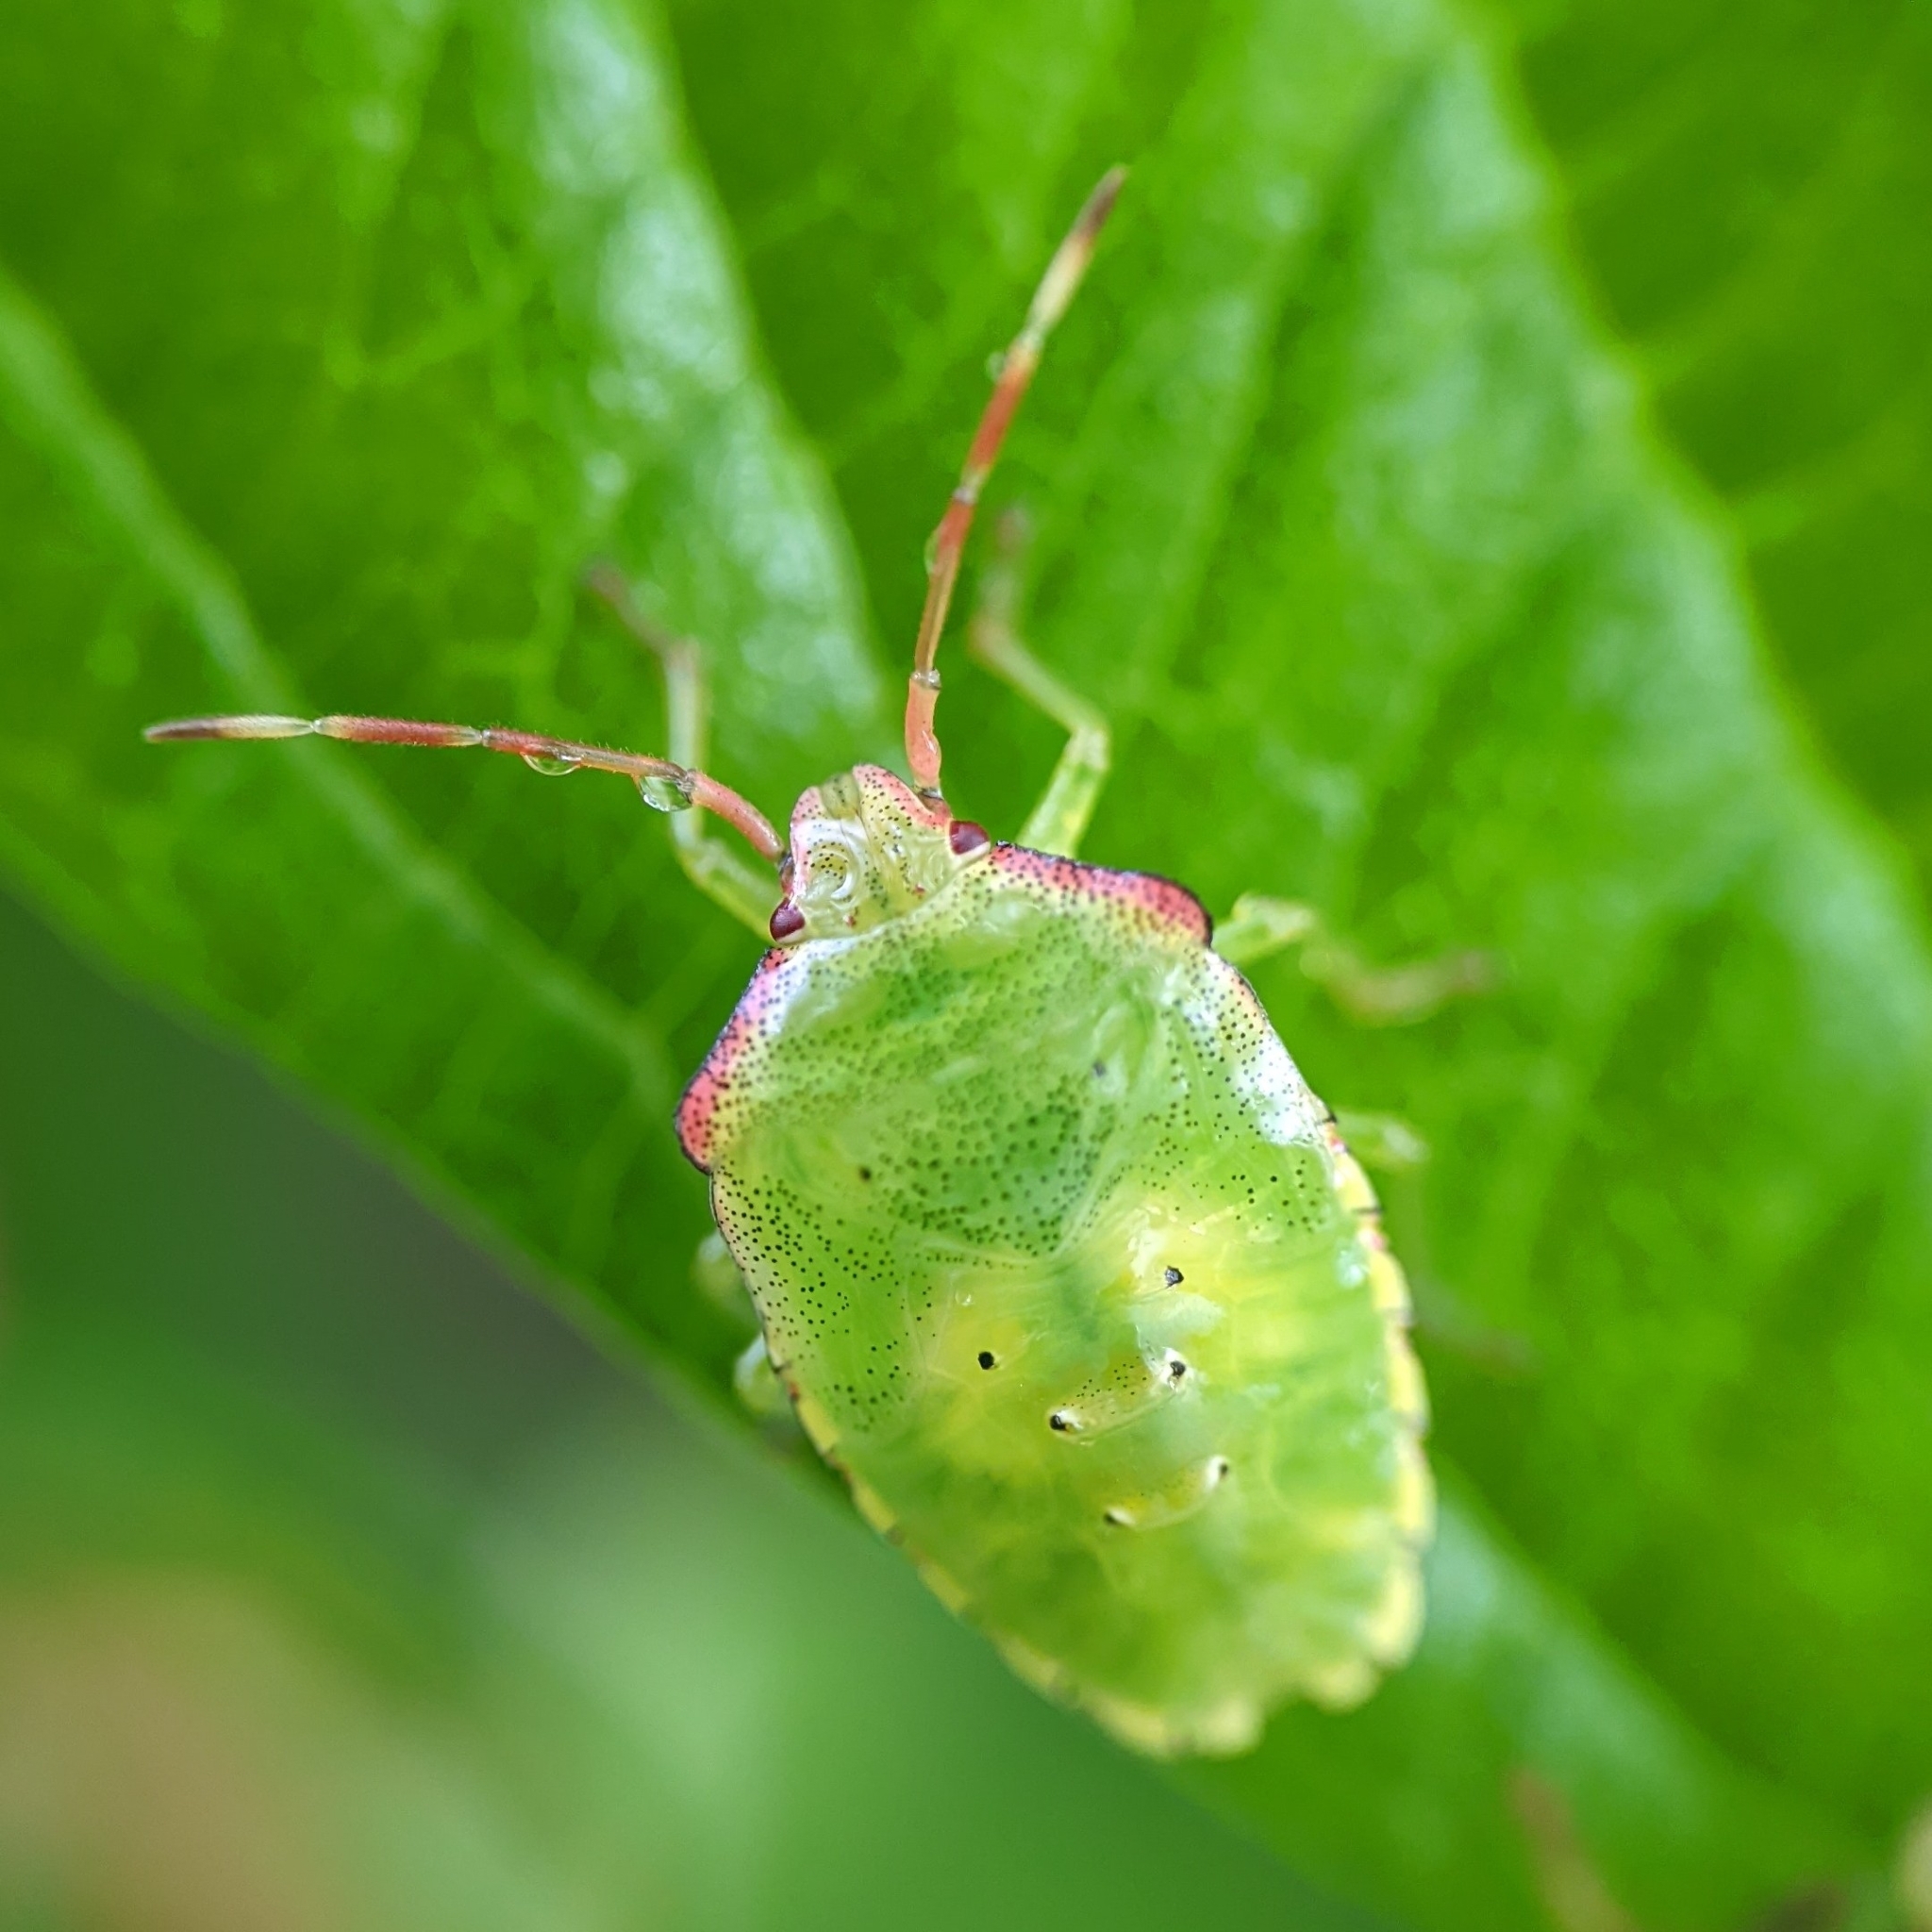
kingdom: Animalia
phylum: Arthropoda
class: Insecta
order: Hemiptera
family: Acanthosomatidae
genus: Acanthosoma
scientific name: Acanthosoma haemorrhoidale
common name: Hawthorn shieldbug
